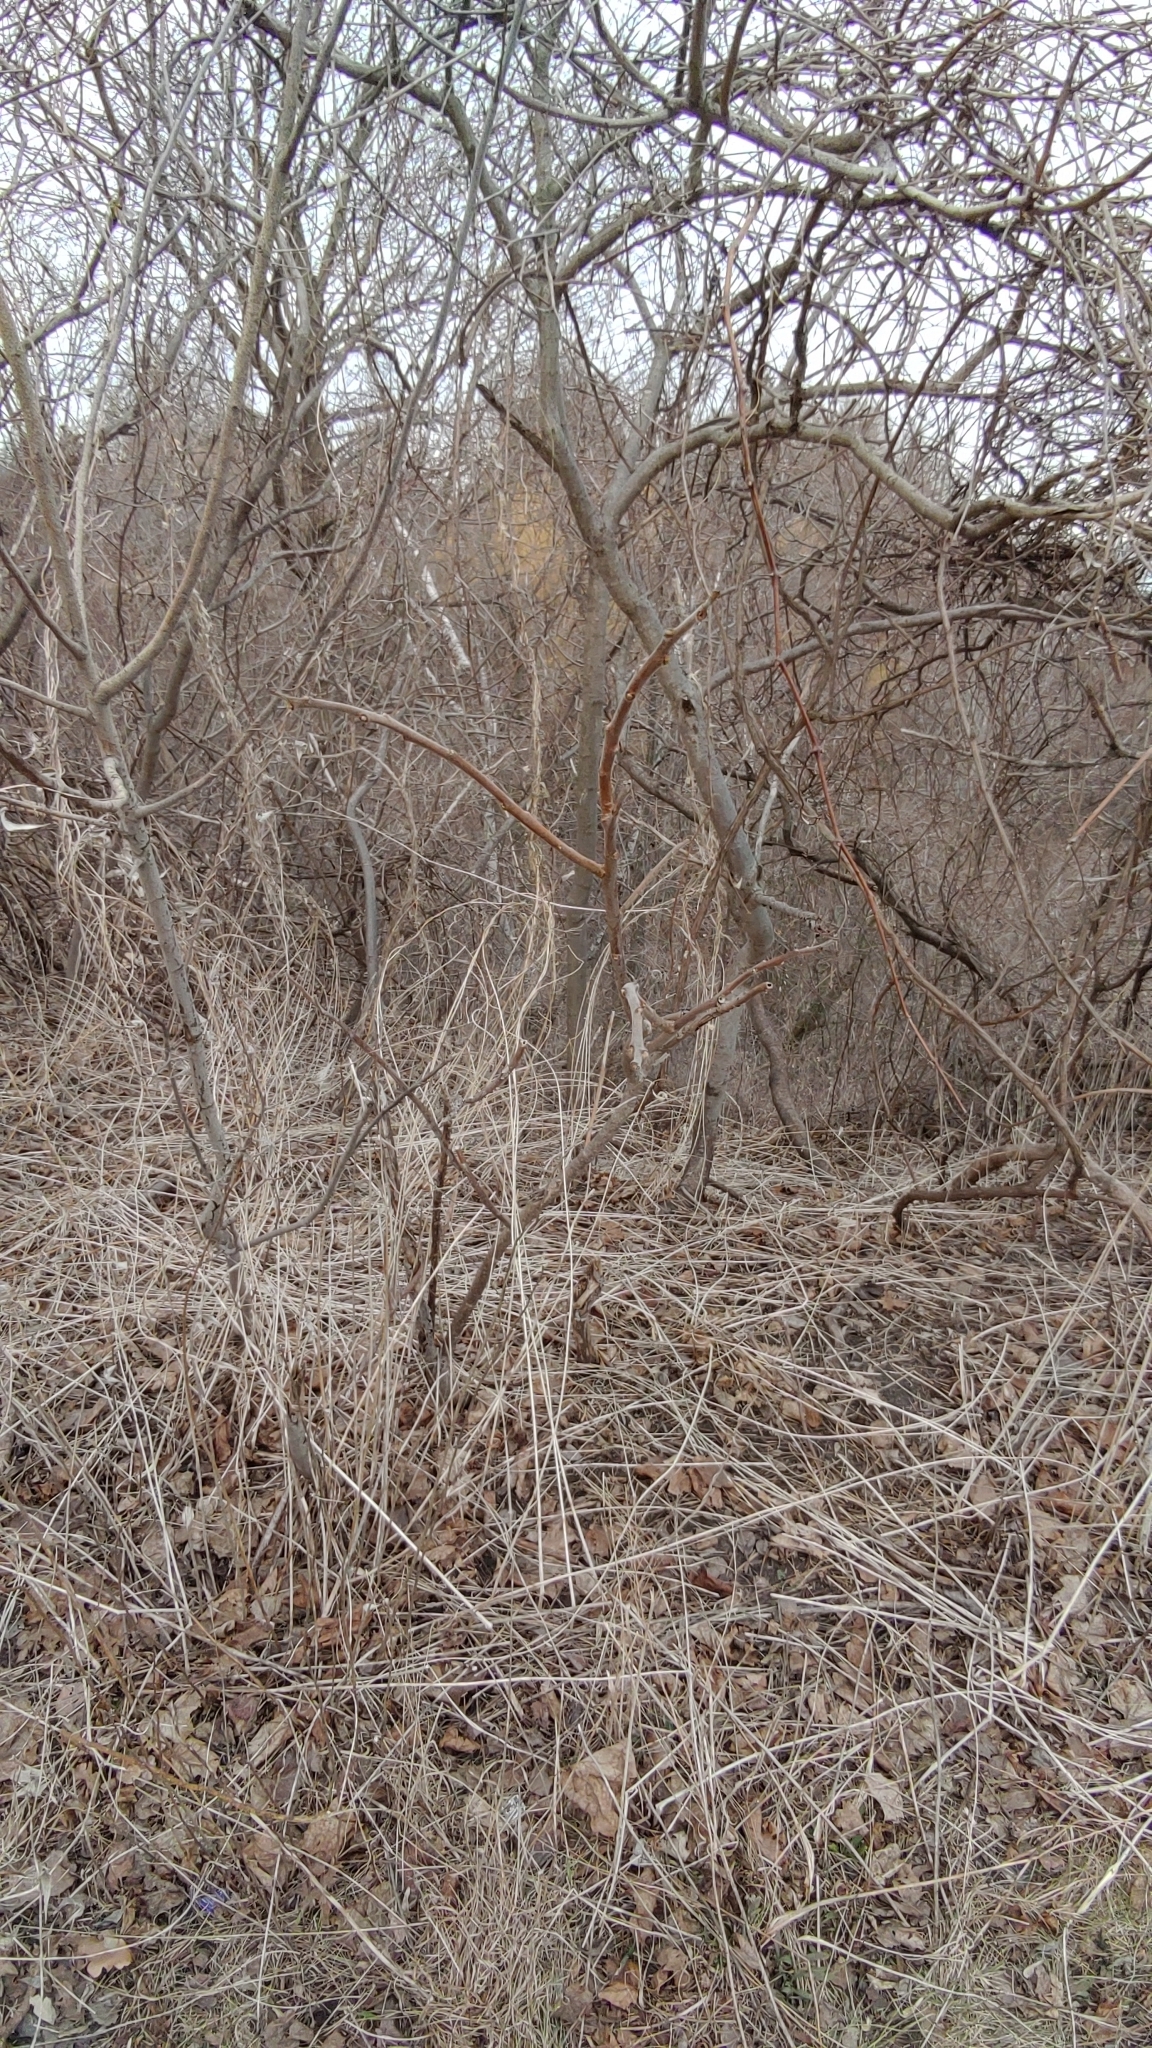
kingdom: Plantae
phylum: Tracheophyta
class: Magnoliopsida
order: Sapindales
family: Anacardiaceae
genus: Rhus
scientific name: Rhus typhina
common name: Staghorn sumac
